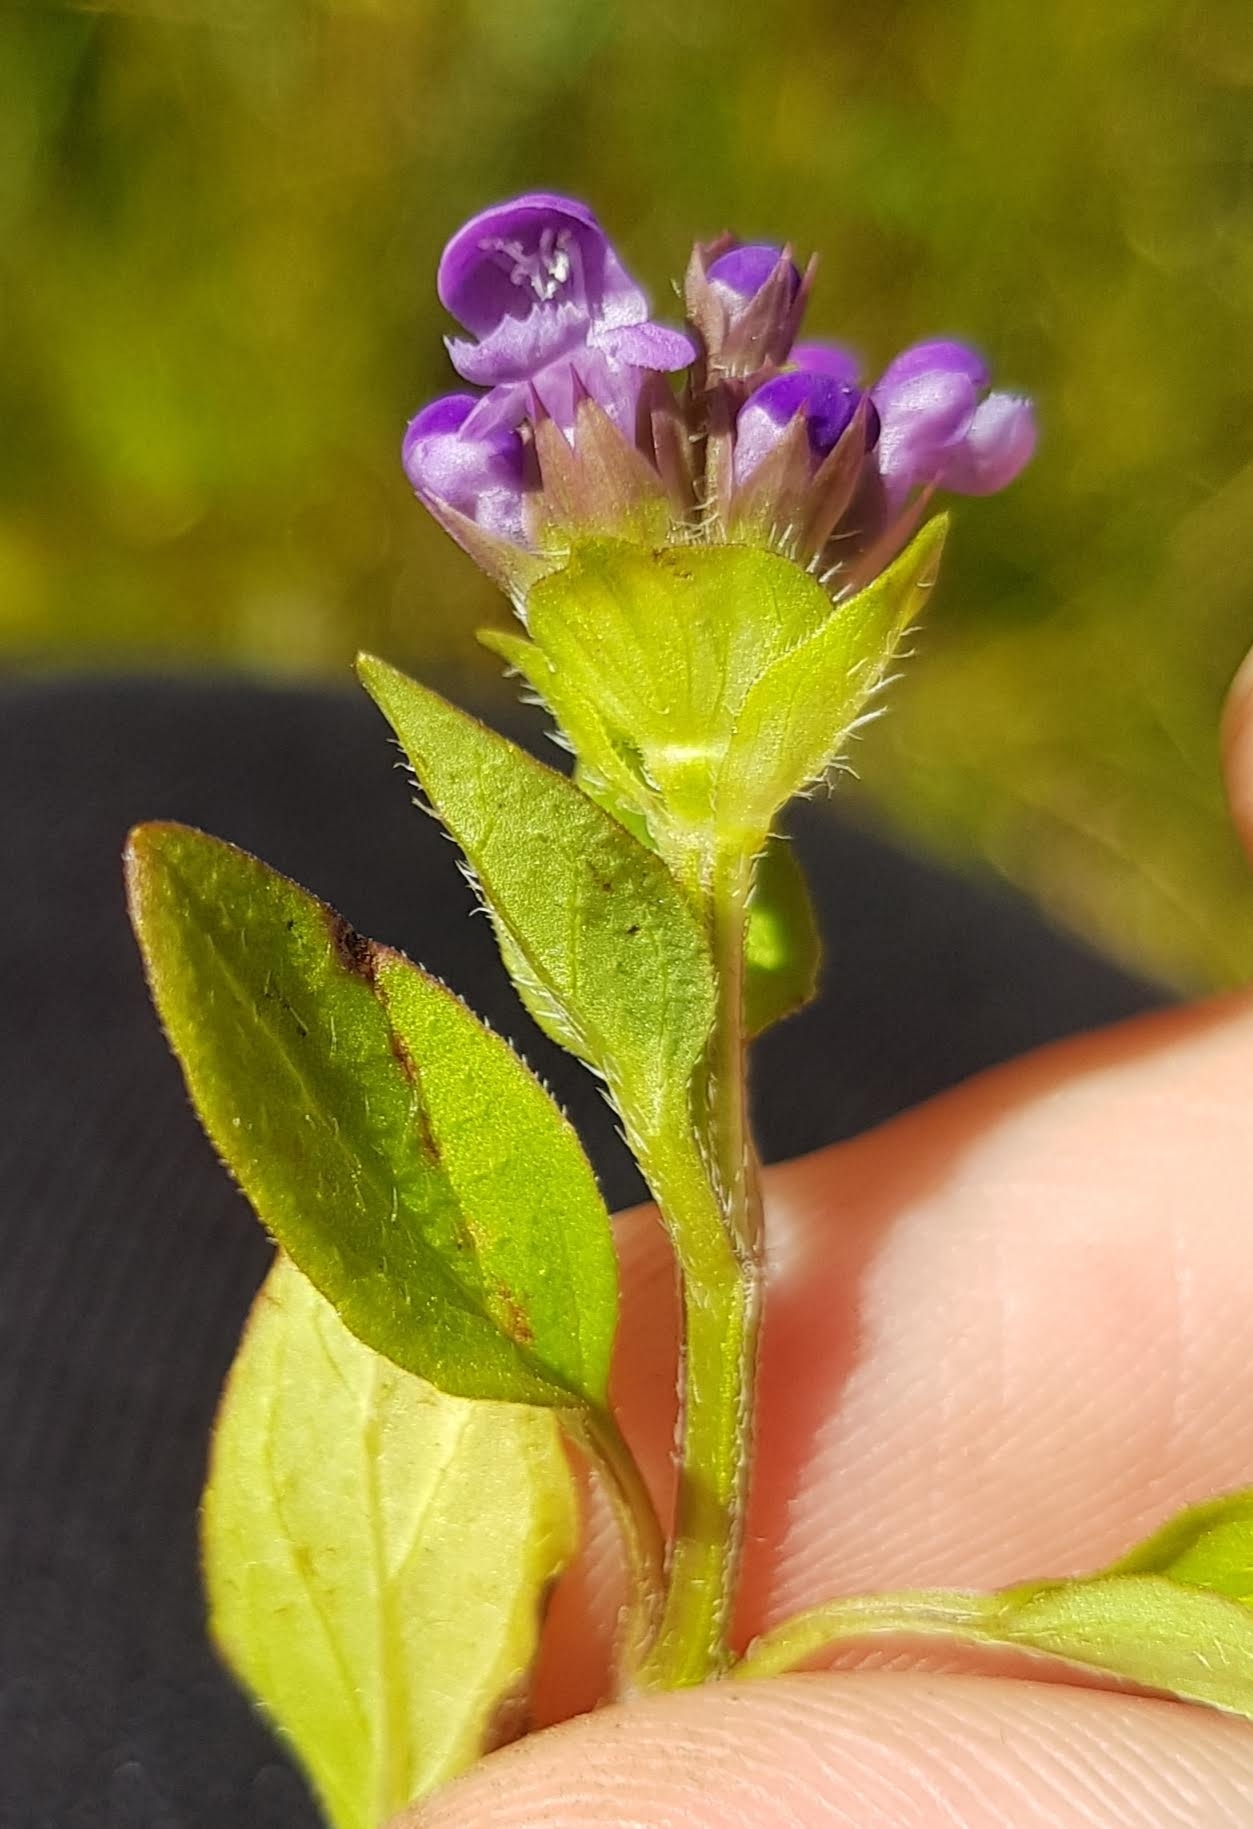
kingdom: Plantae
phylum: Tracheophyta
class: Magnoliopsida
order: Lamiales
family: Lamiaceae
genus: Prunella
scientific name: Prunella vulgaris
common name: Heal-all
